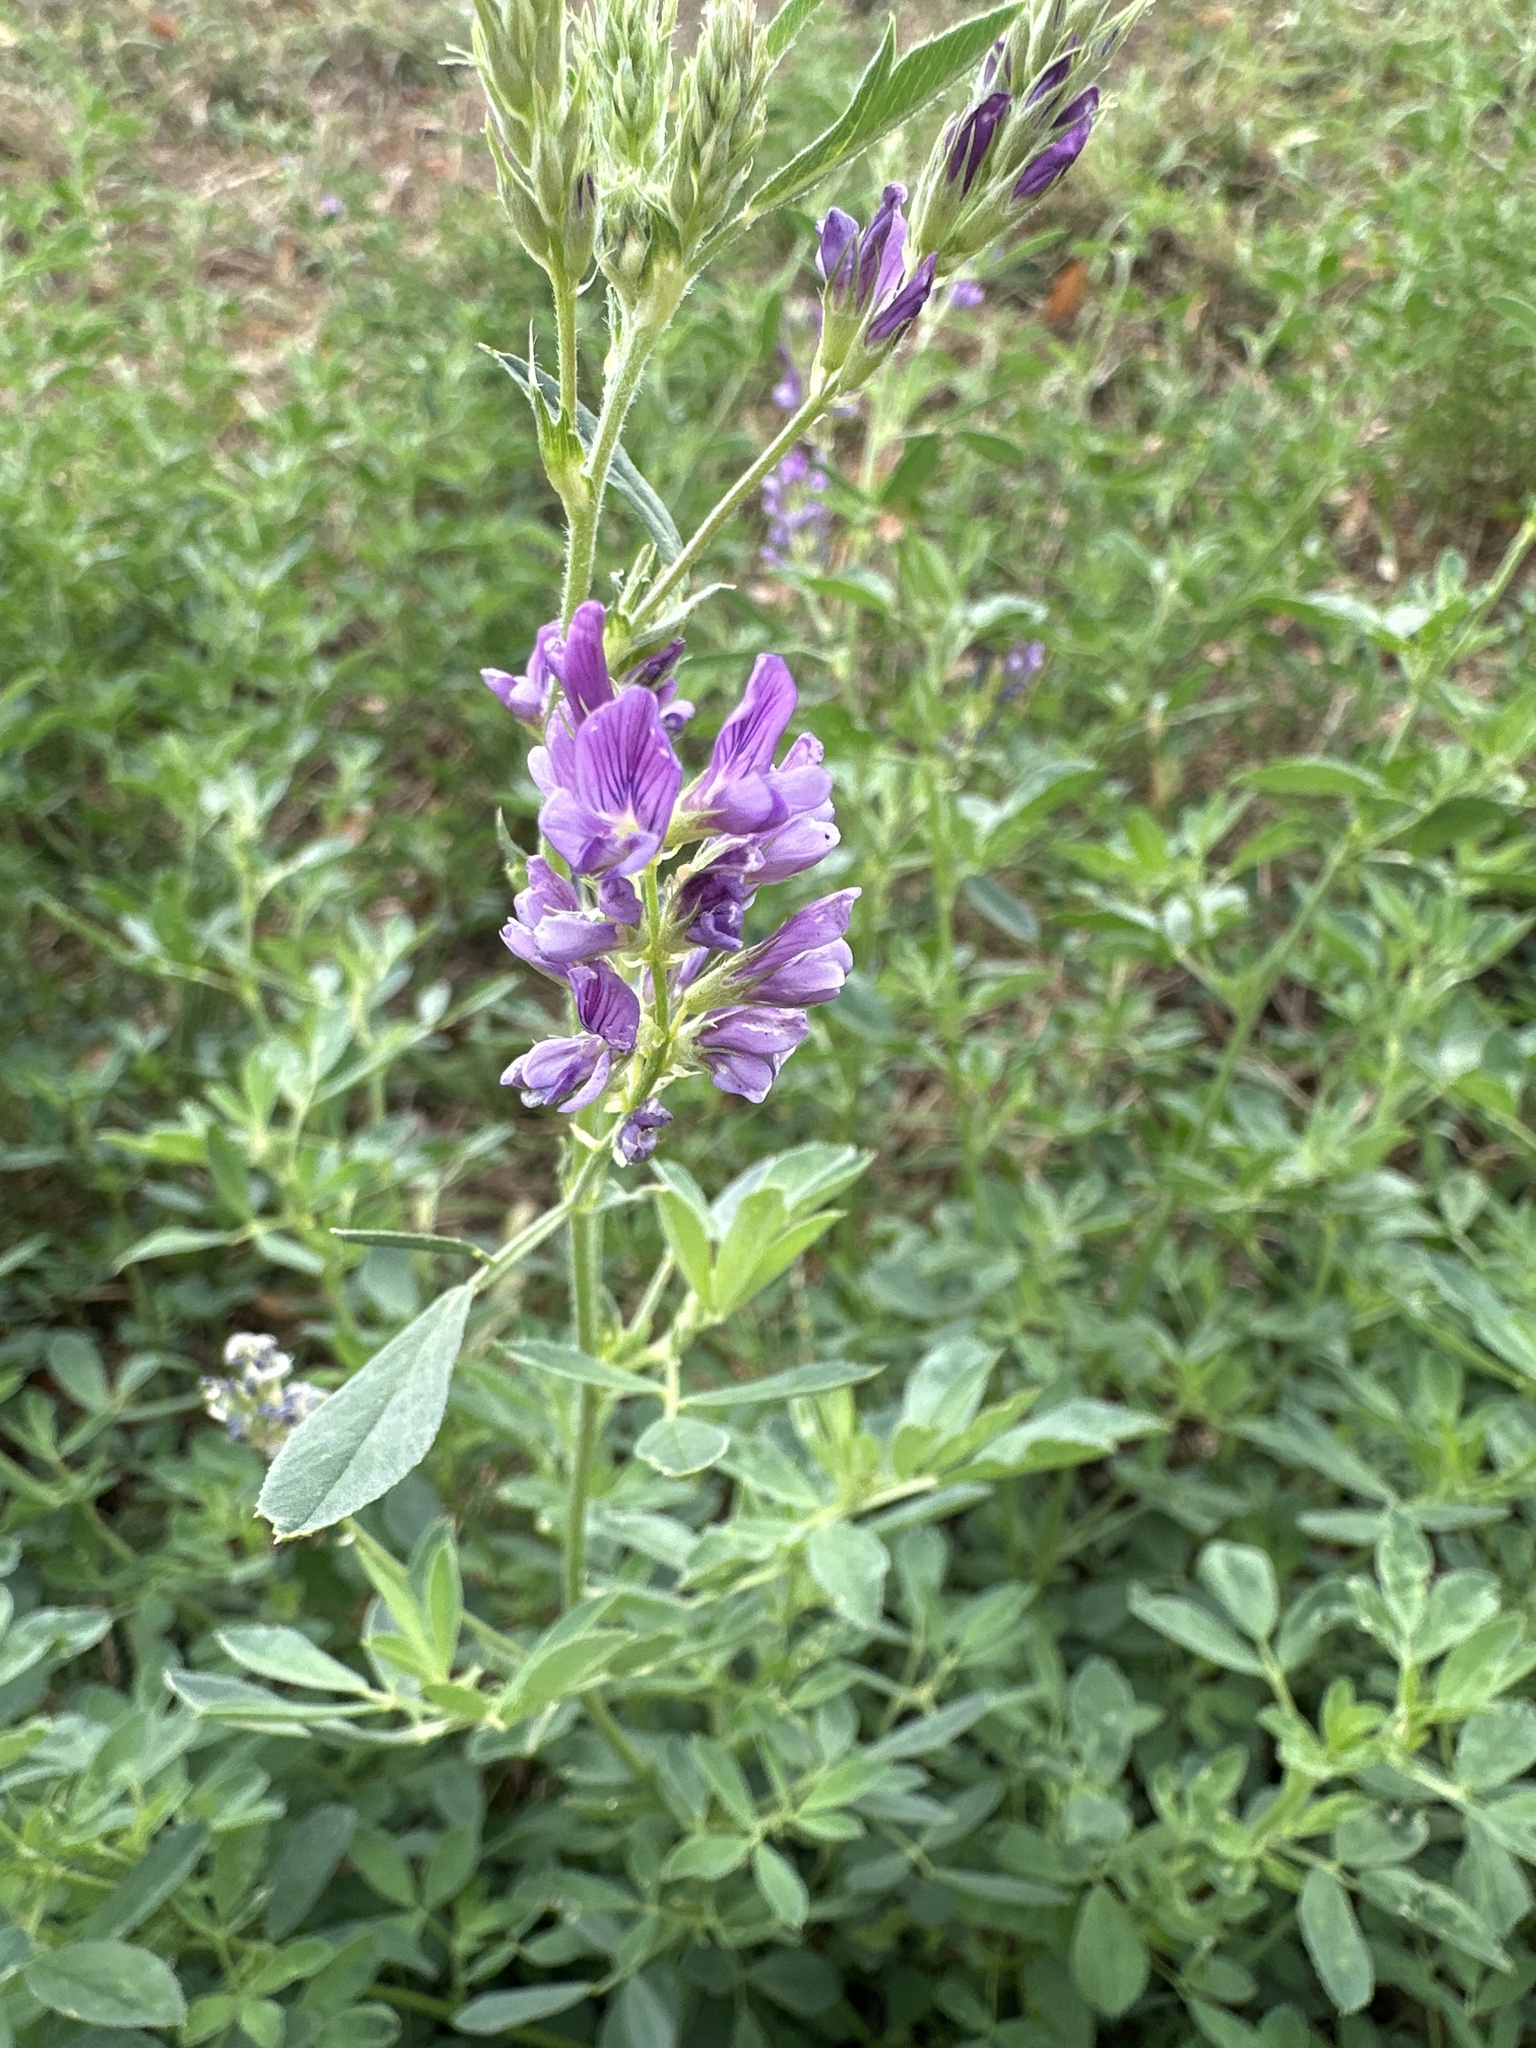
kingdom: Plantae
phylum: Tracheophyta
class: Magnoliopsida
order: Fabales
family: Fabaceae
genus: Medicago
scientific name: Medicago sativa
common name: Alfalfa
